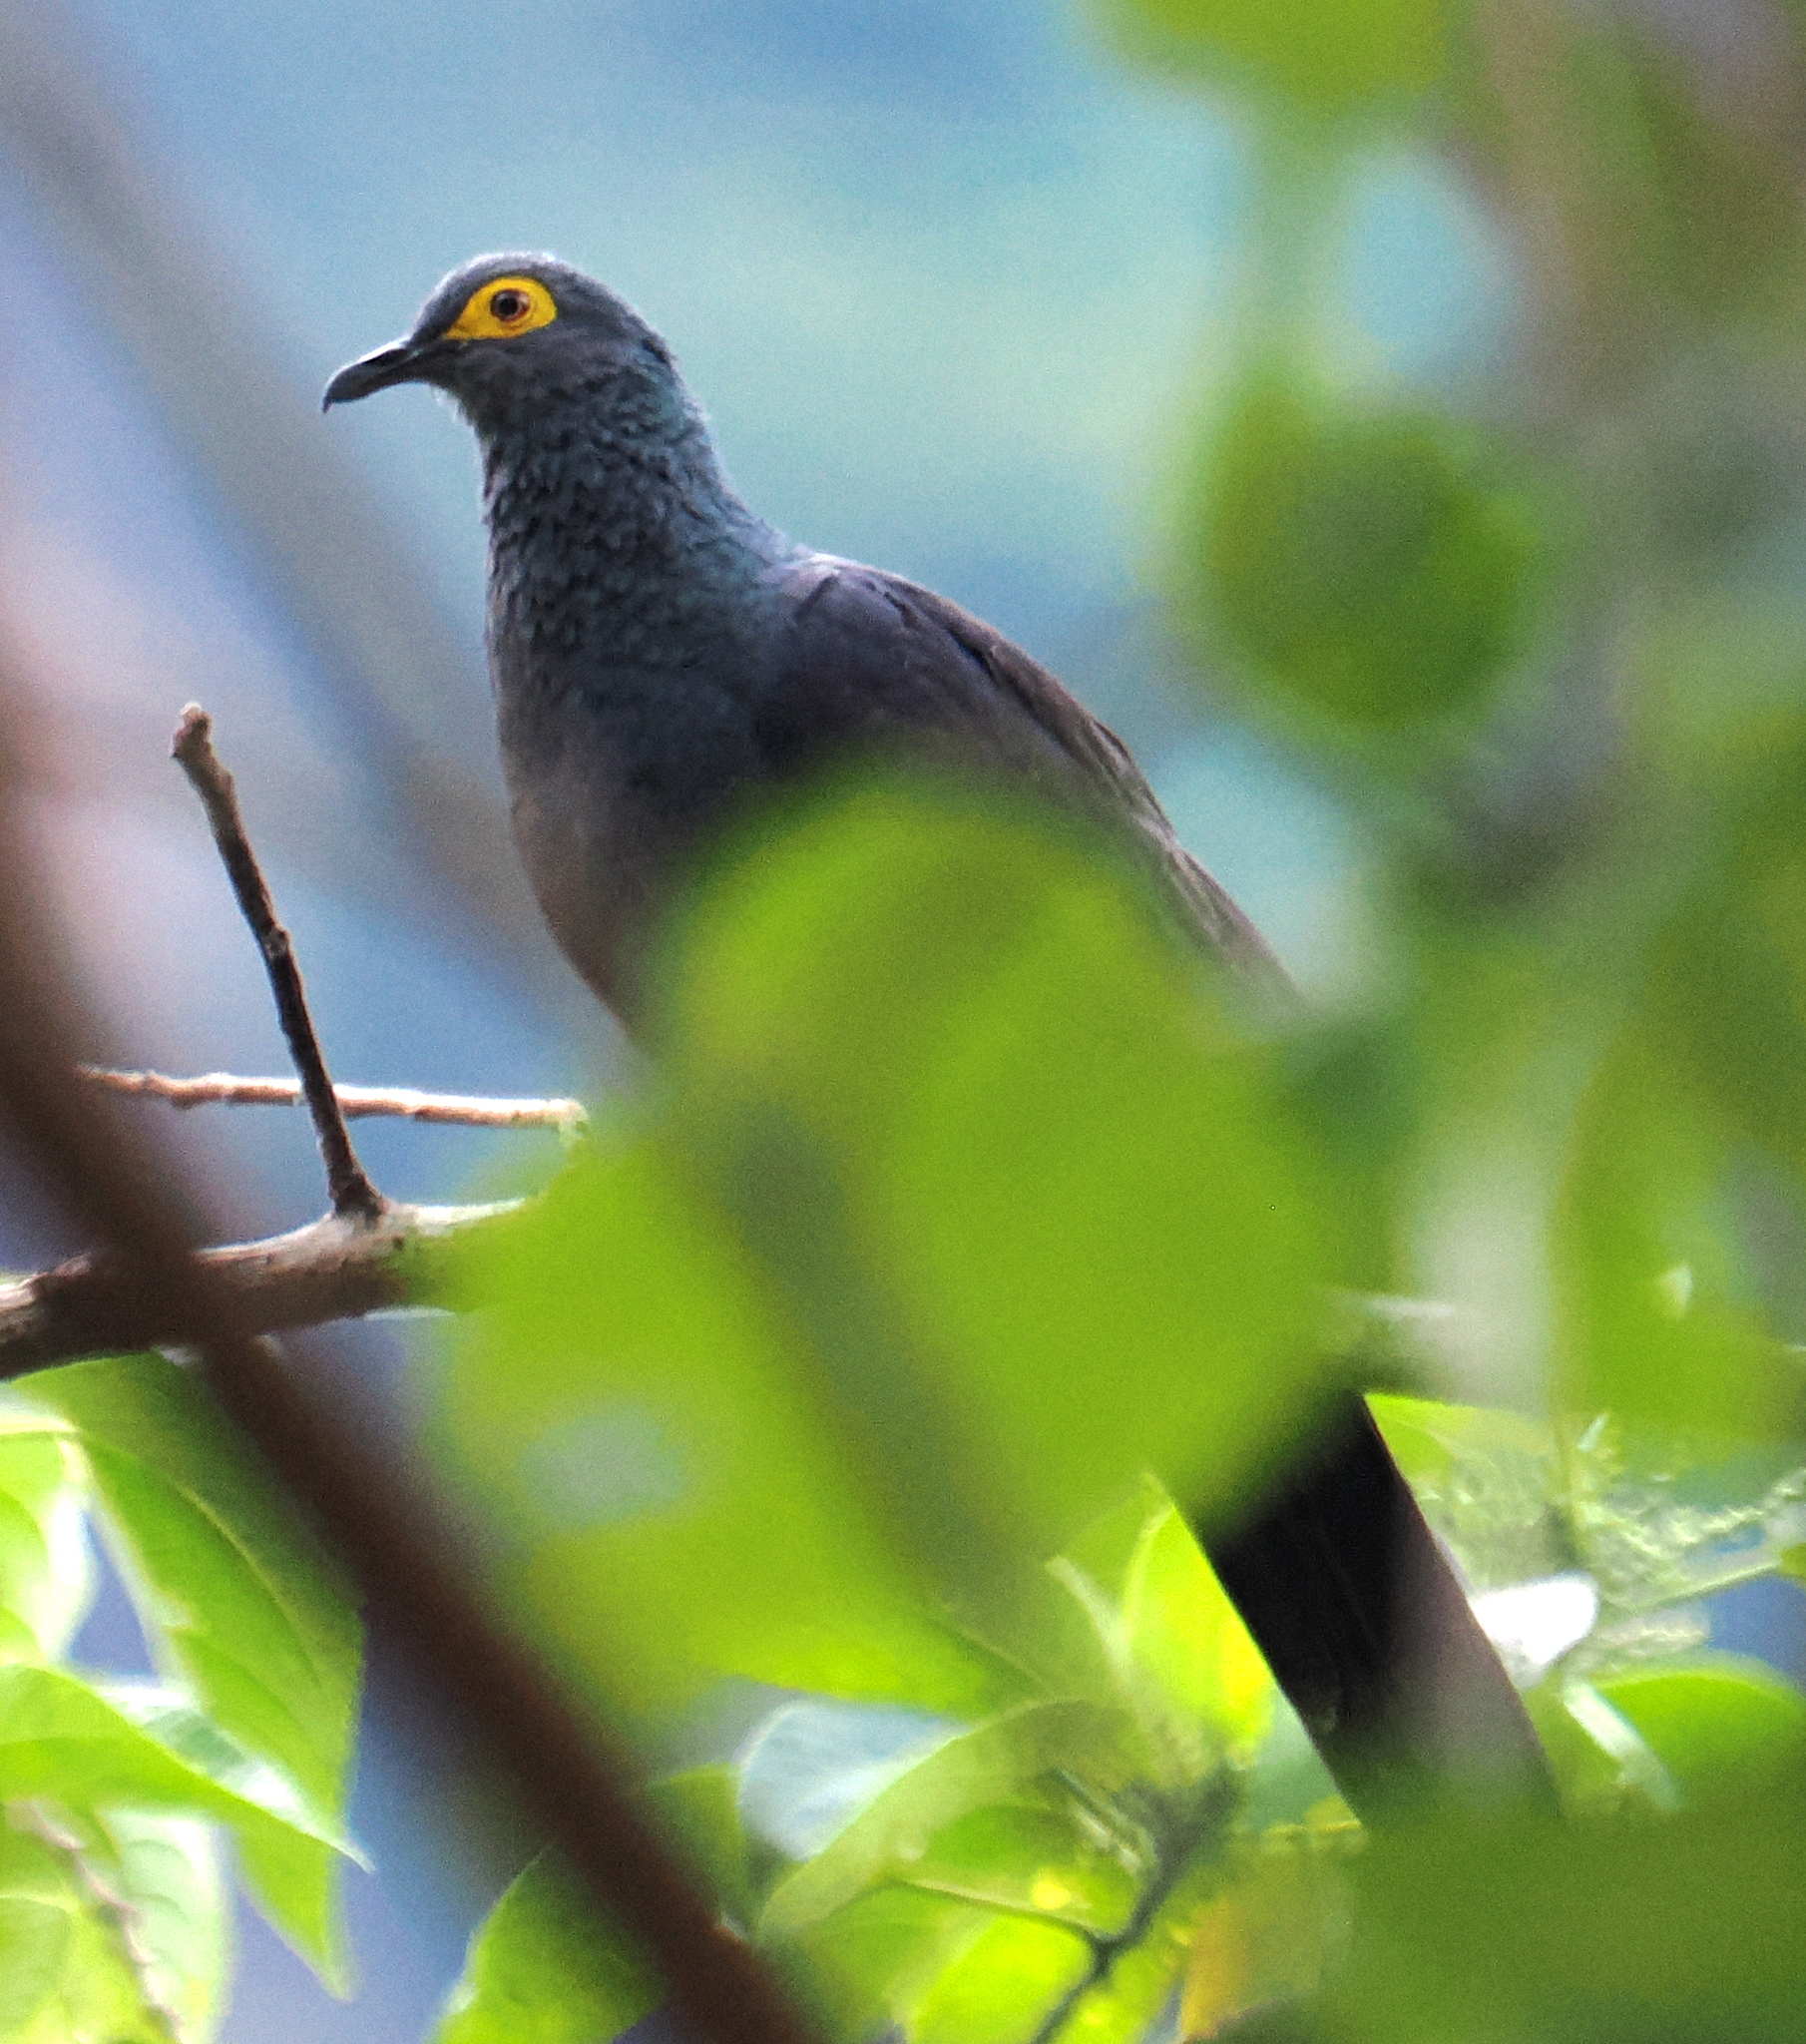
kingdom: Animalia
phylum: Chordata
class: Aves
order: Columbiformes
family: Columbidae
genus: Turacoena
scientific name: Turacoena modesta
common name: Black cuckoo-dove
